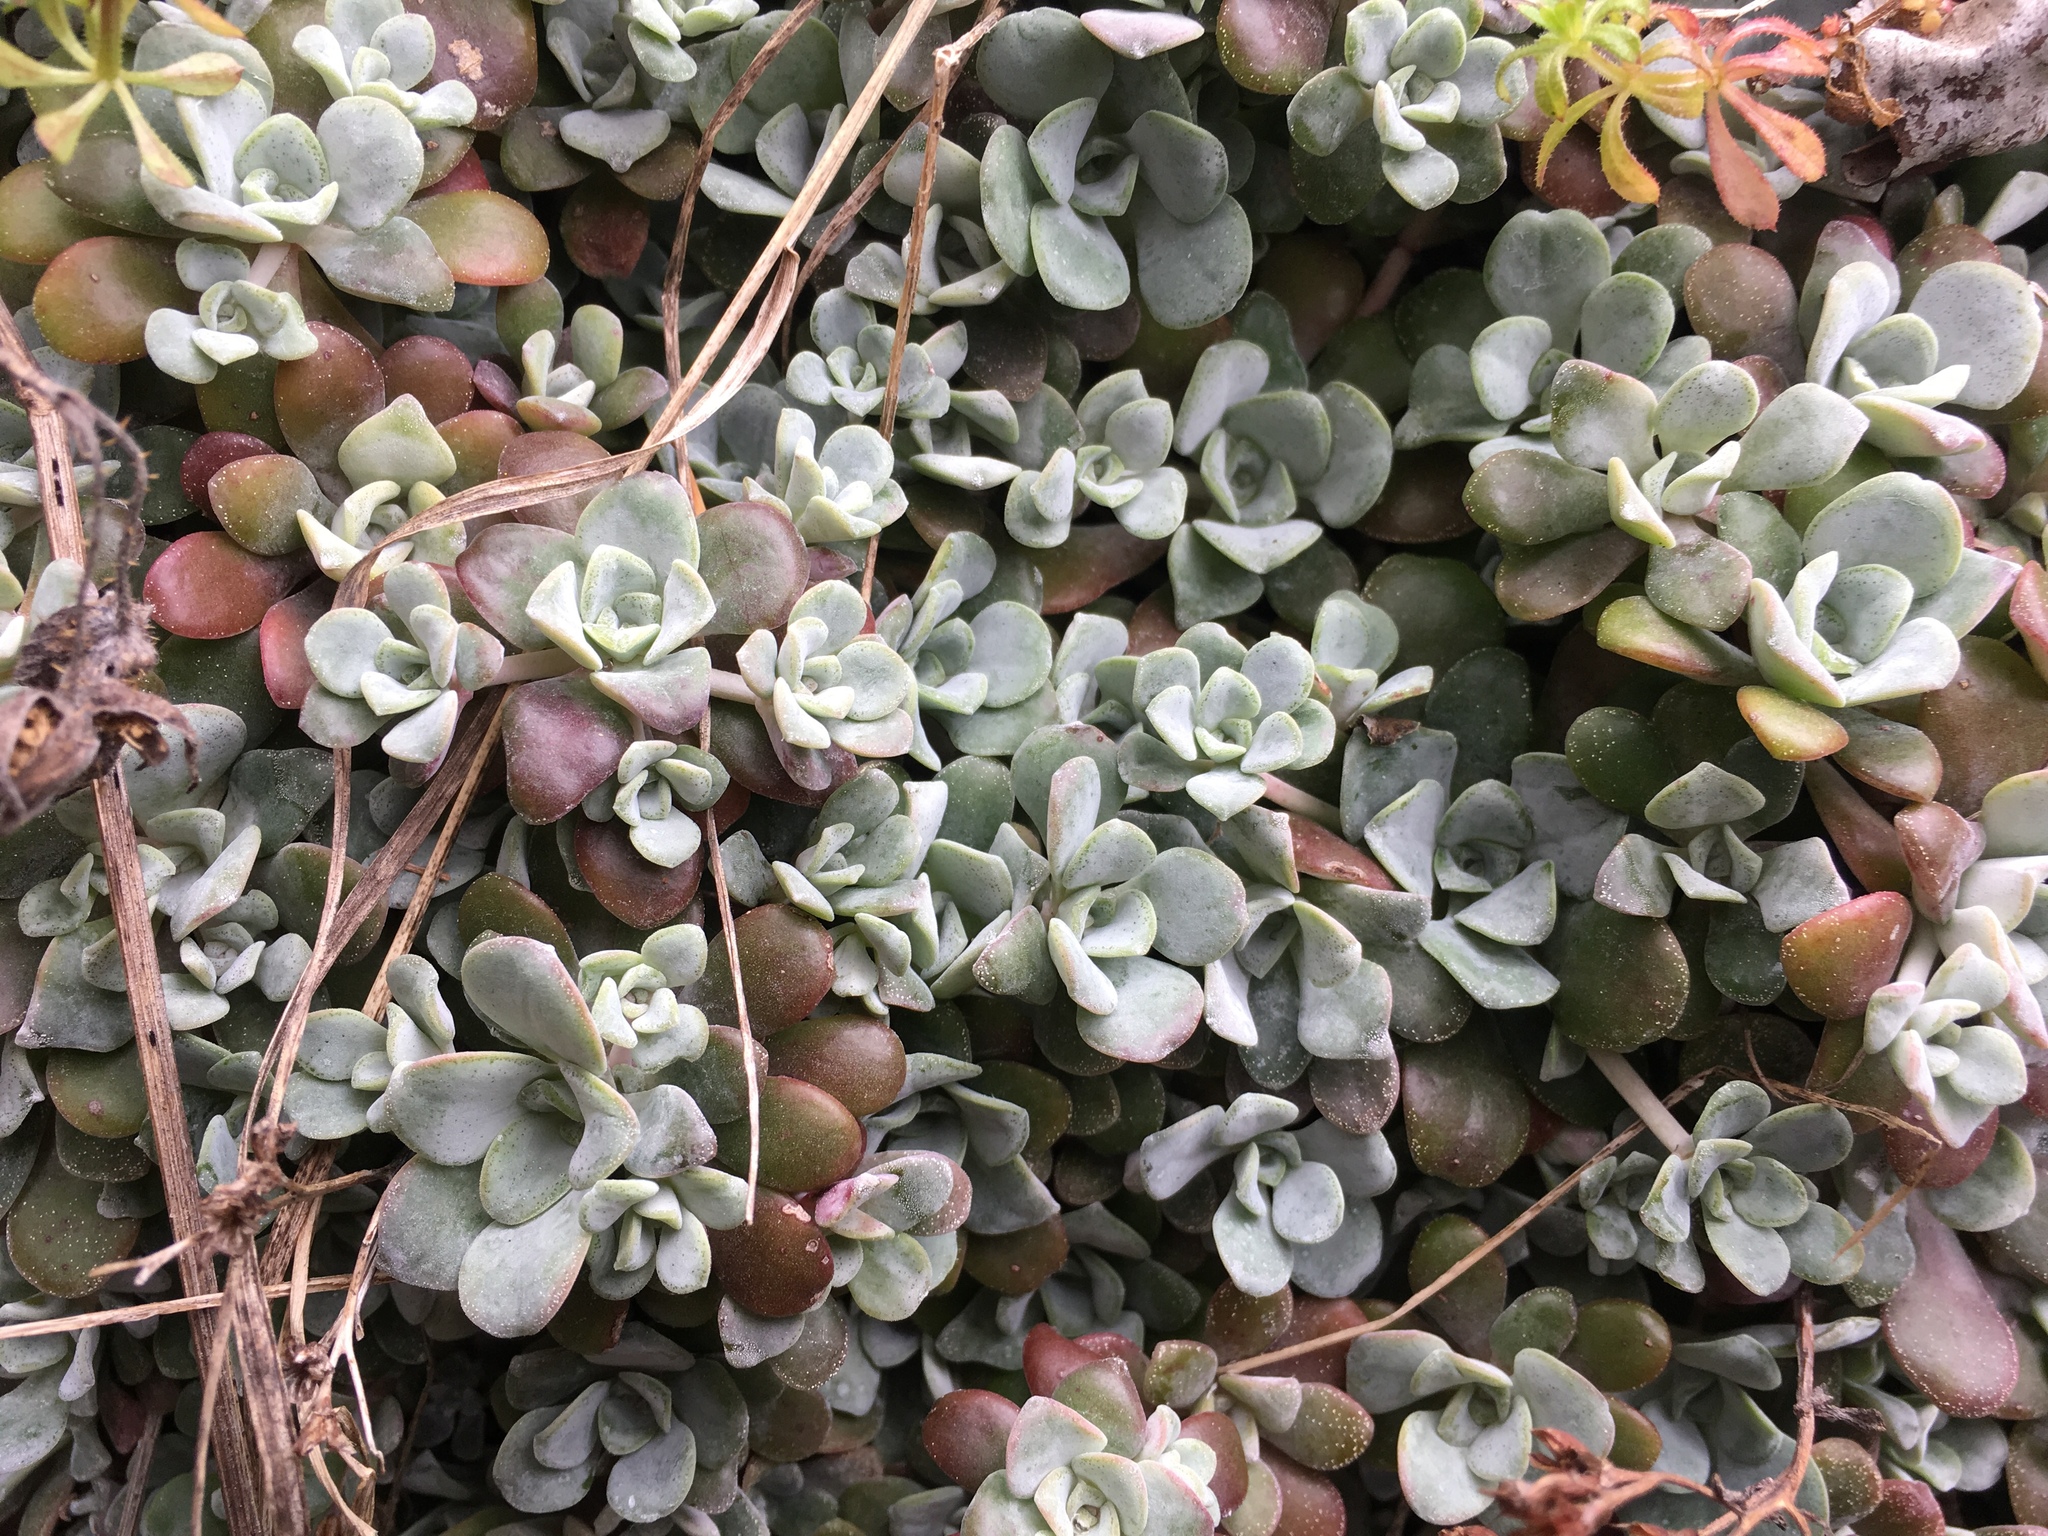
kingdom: Plantae
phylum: Tracheophyta
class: Magnoliopsida
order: Saxifragales
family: Crassulaceae
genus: Sedum
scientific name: Sedum spathulifolium
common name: Colorado stonecrop
